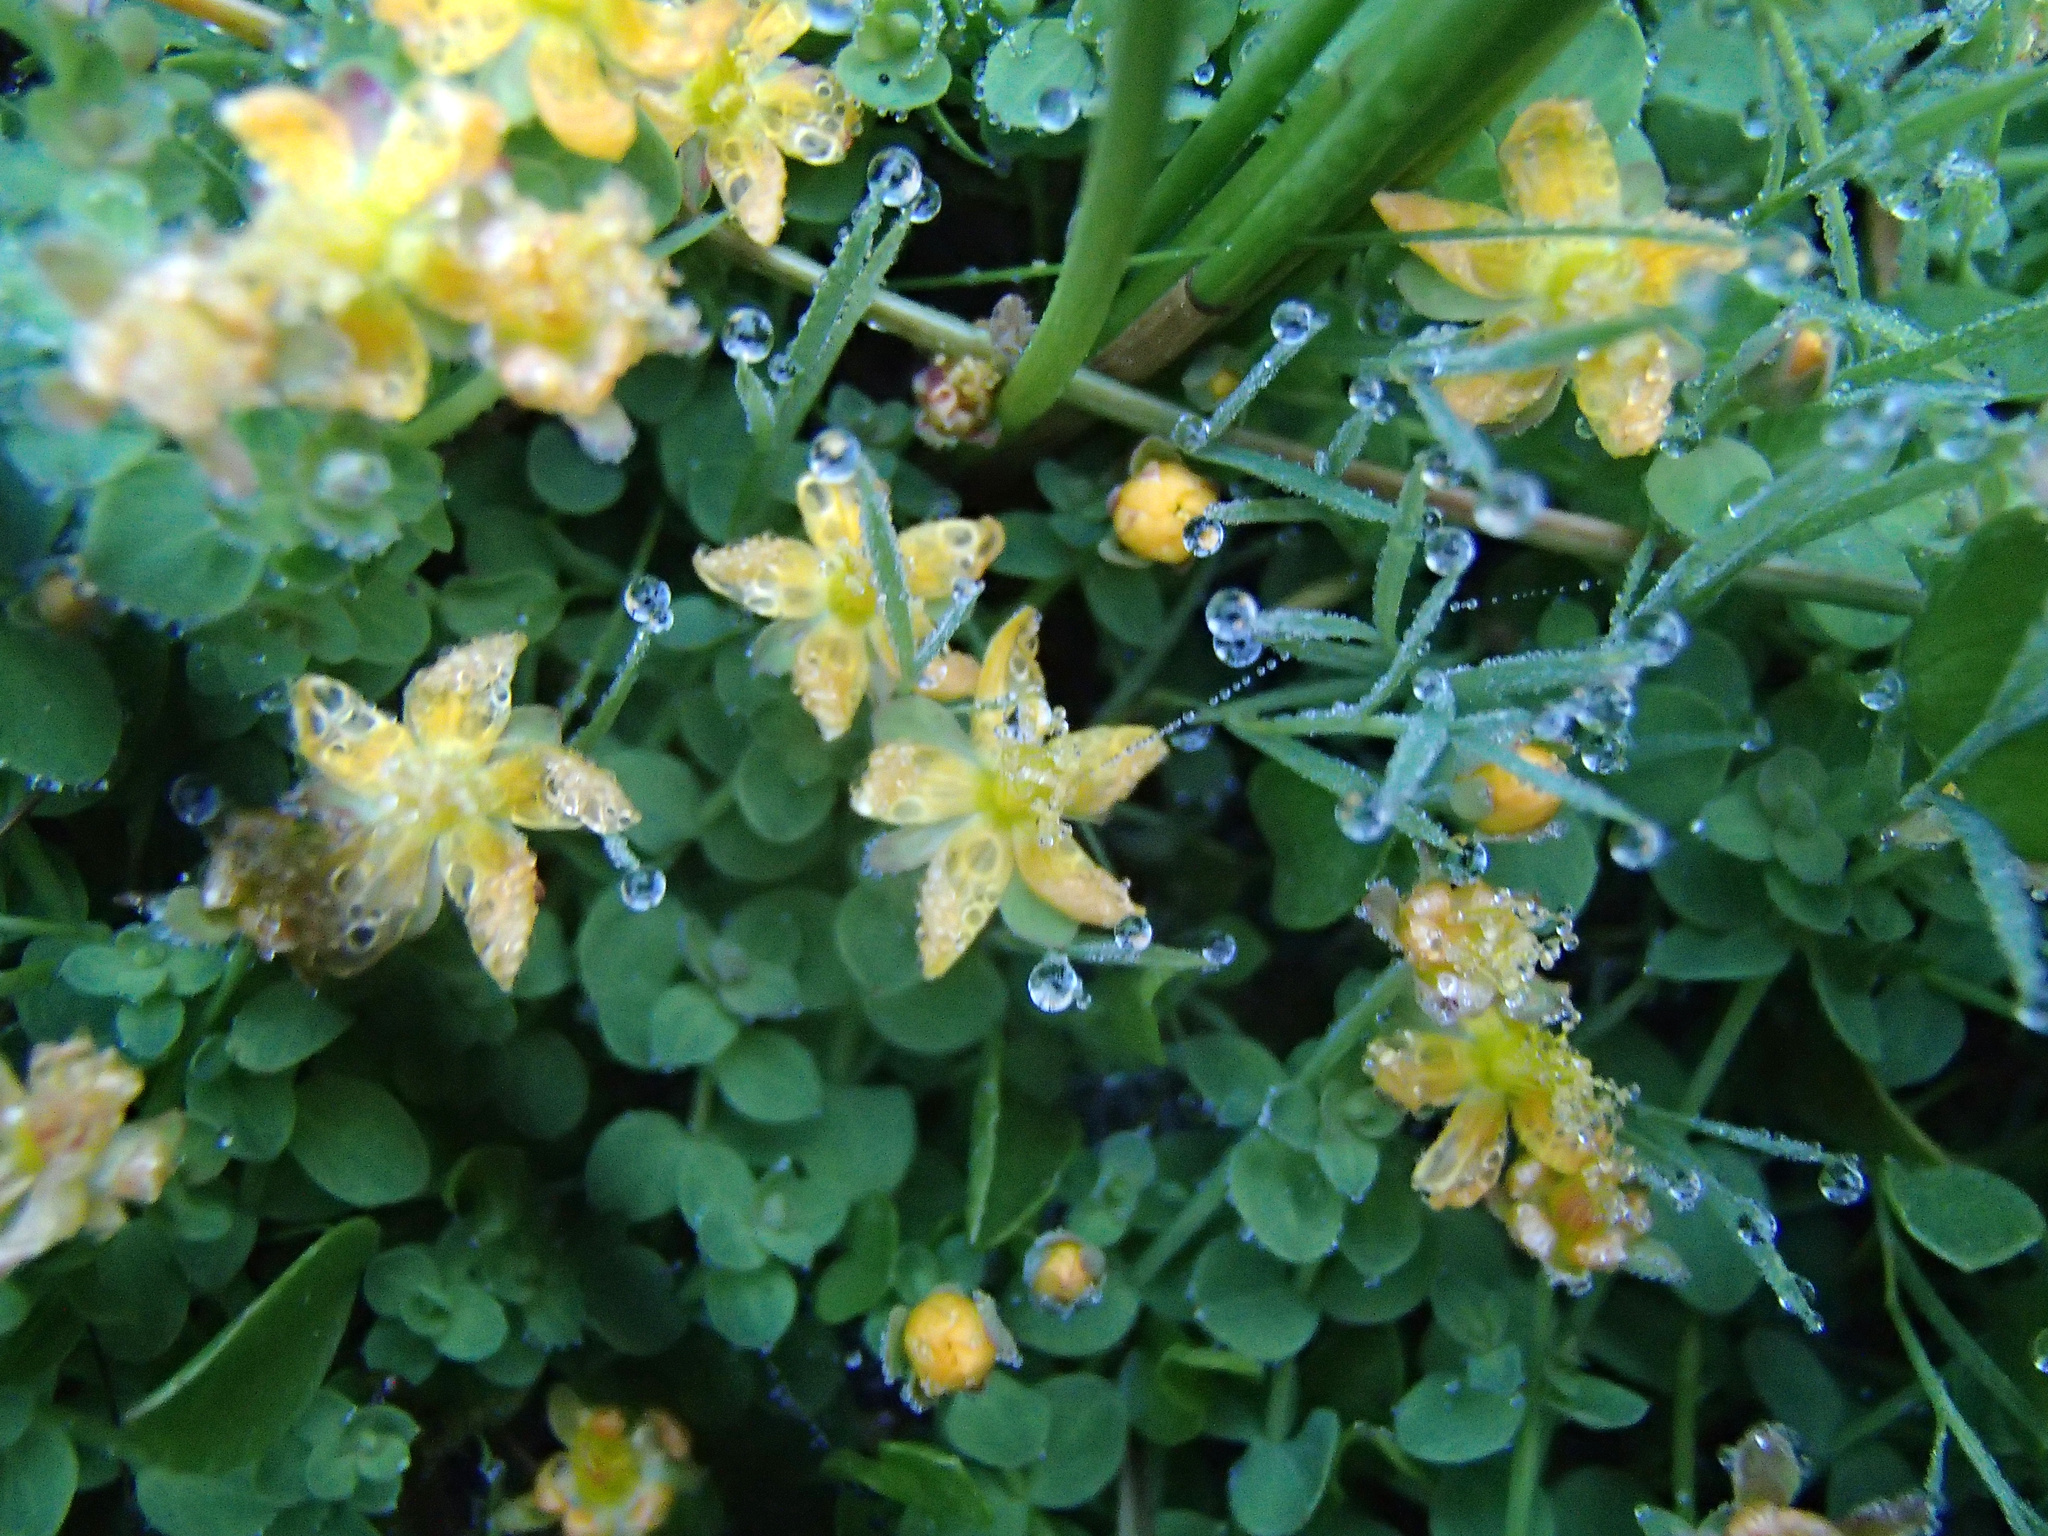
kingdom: Plantae
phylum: Tracheophyta
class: Magnoliopsida
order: Malpighiales
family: Hypericaceae
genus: Hypericum
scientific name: Hypericum anagalloides
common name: Bog st. john's-wort
